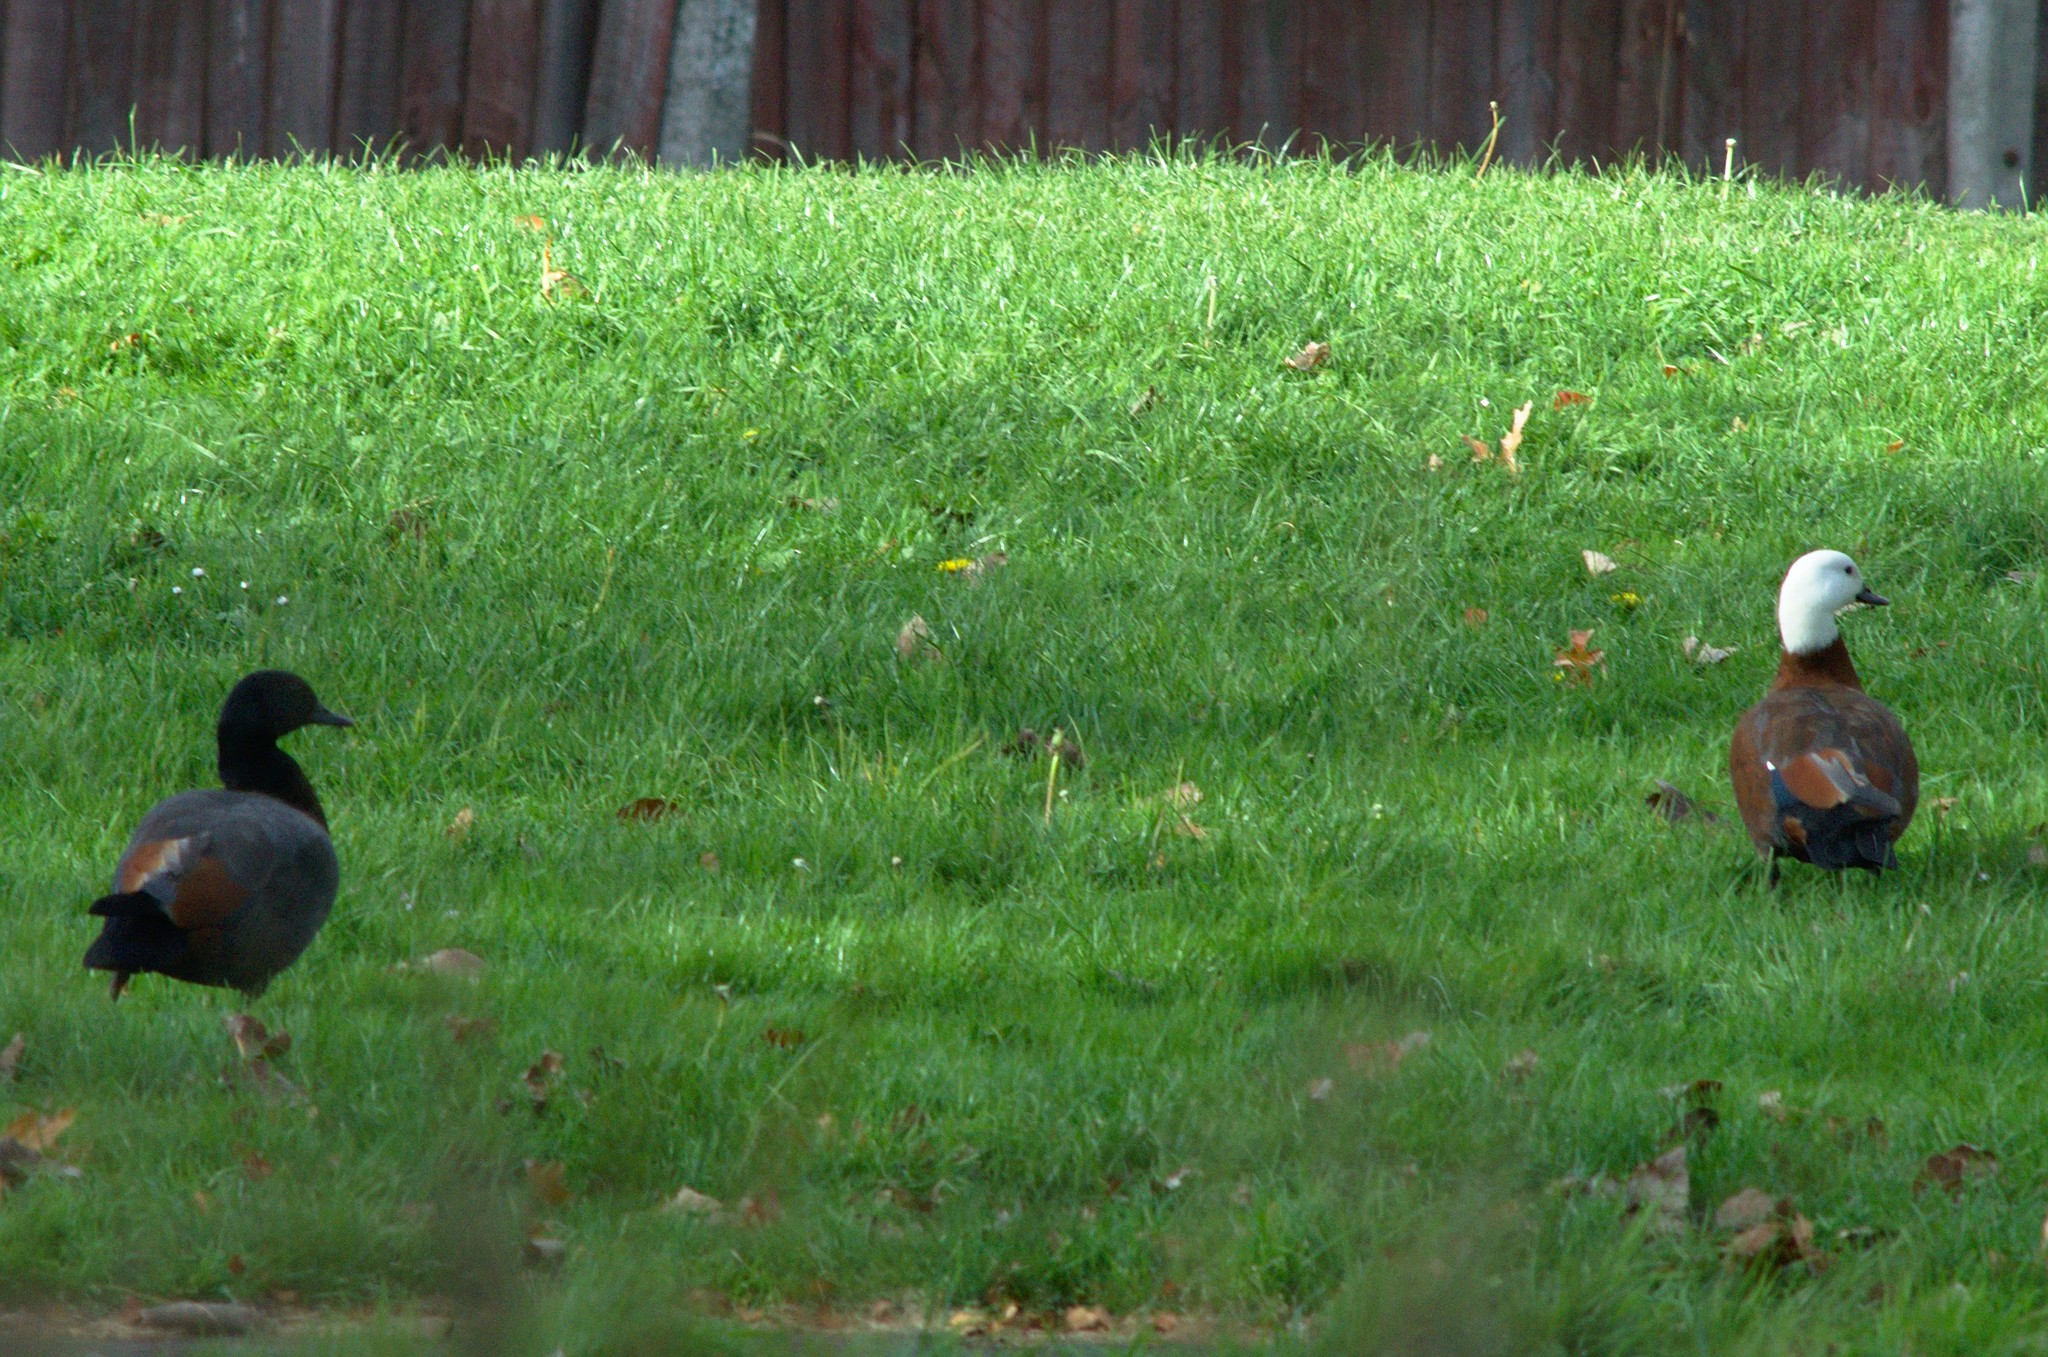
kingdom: Animalia
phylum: Chordata
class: Aves
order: Anseriformes
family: Anatidae
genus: Tadorna
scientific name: Tadorna variegata
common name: Paradise shelduck
